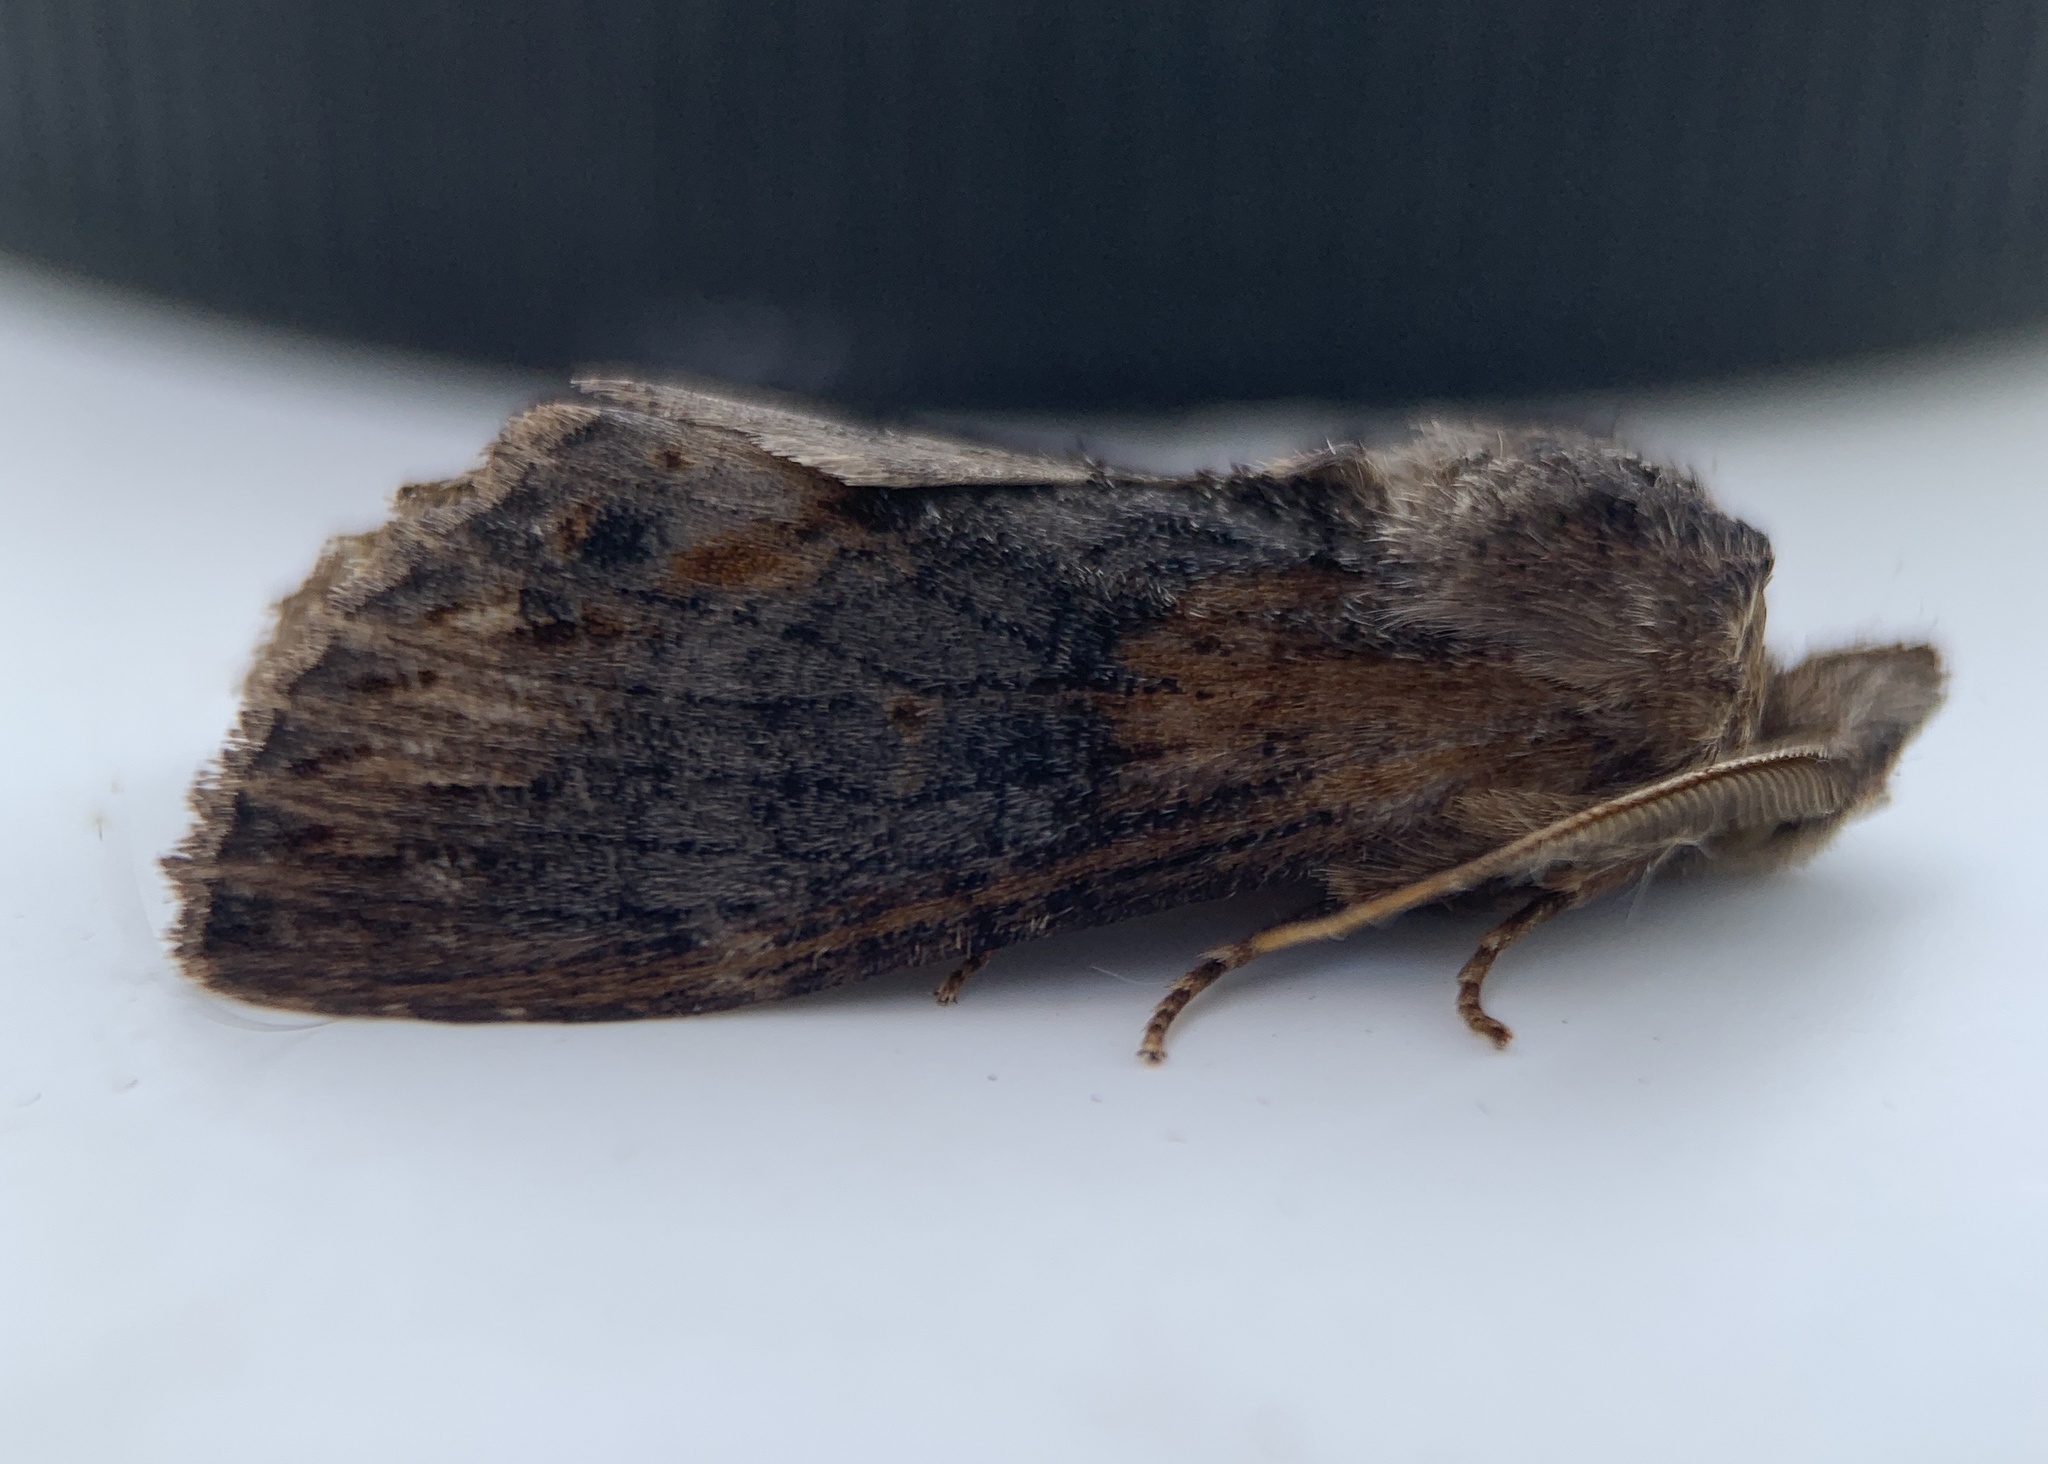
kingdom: Animalia
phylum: Arthropoda
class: Insecta
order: Lepidoptera
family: Notodontidae
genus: Dasylophia
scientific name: Dasylophia thyatiroides
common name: Gray-patched prominent
